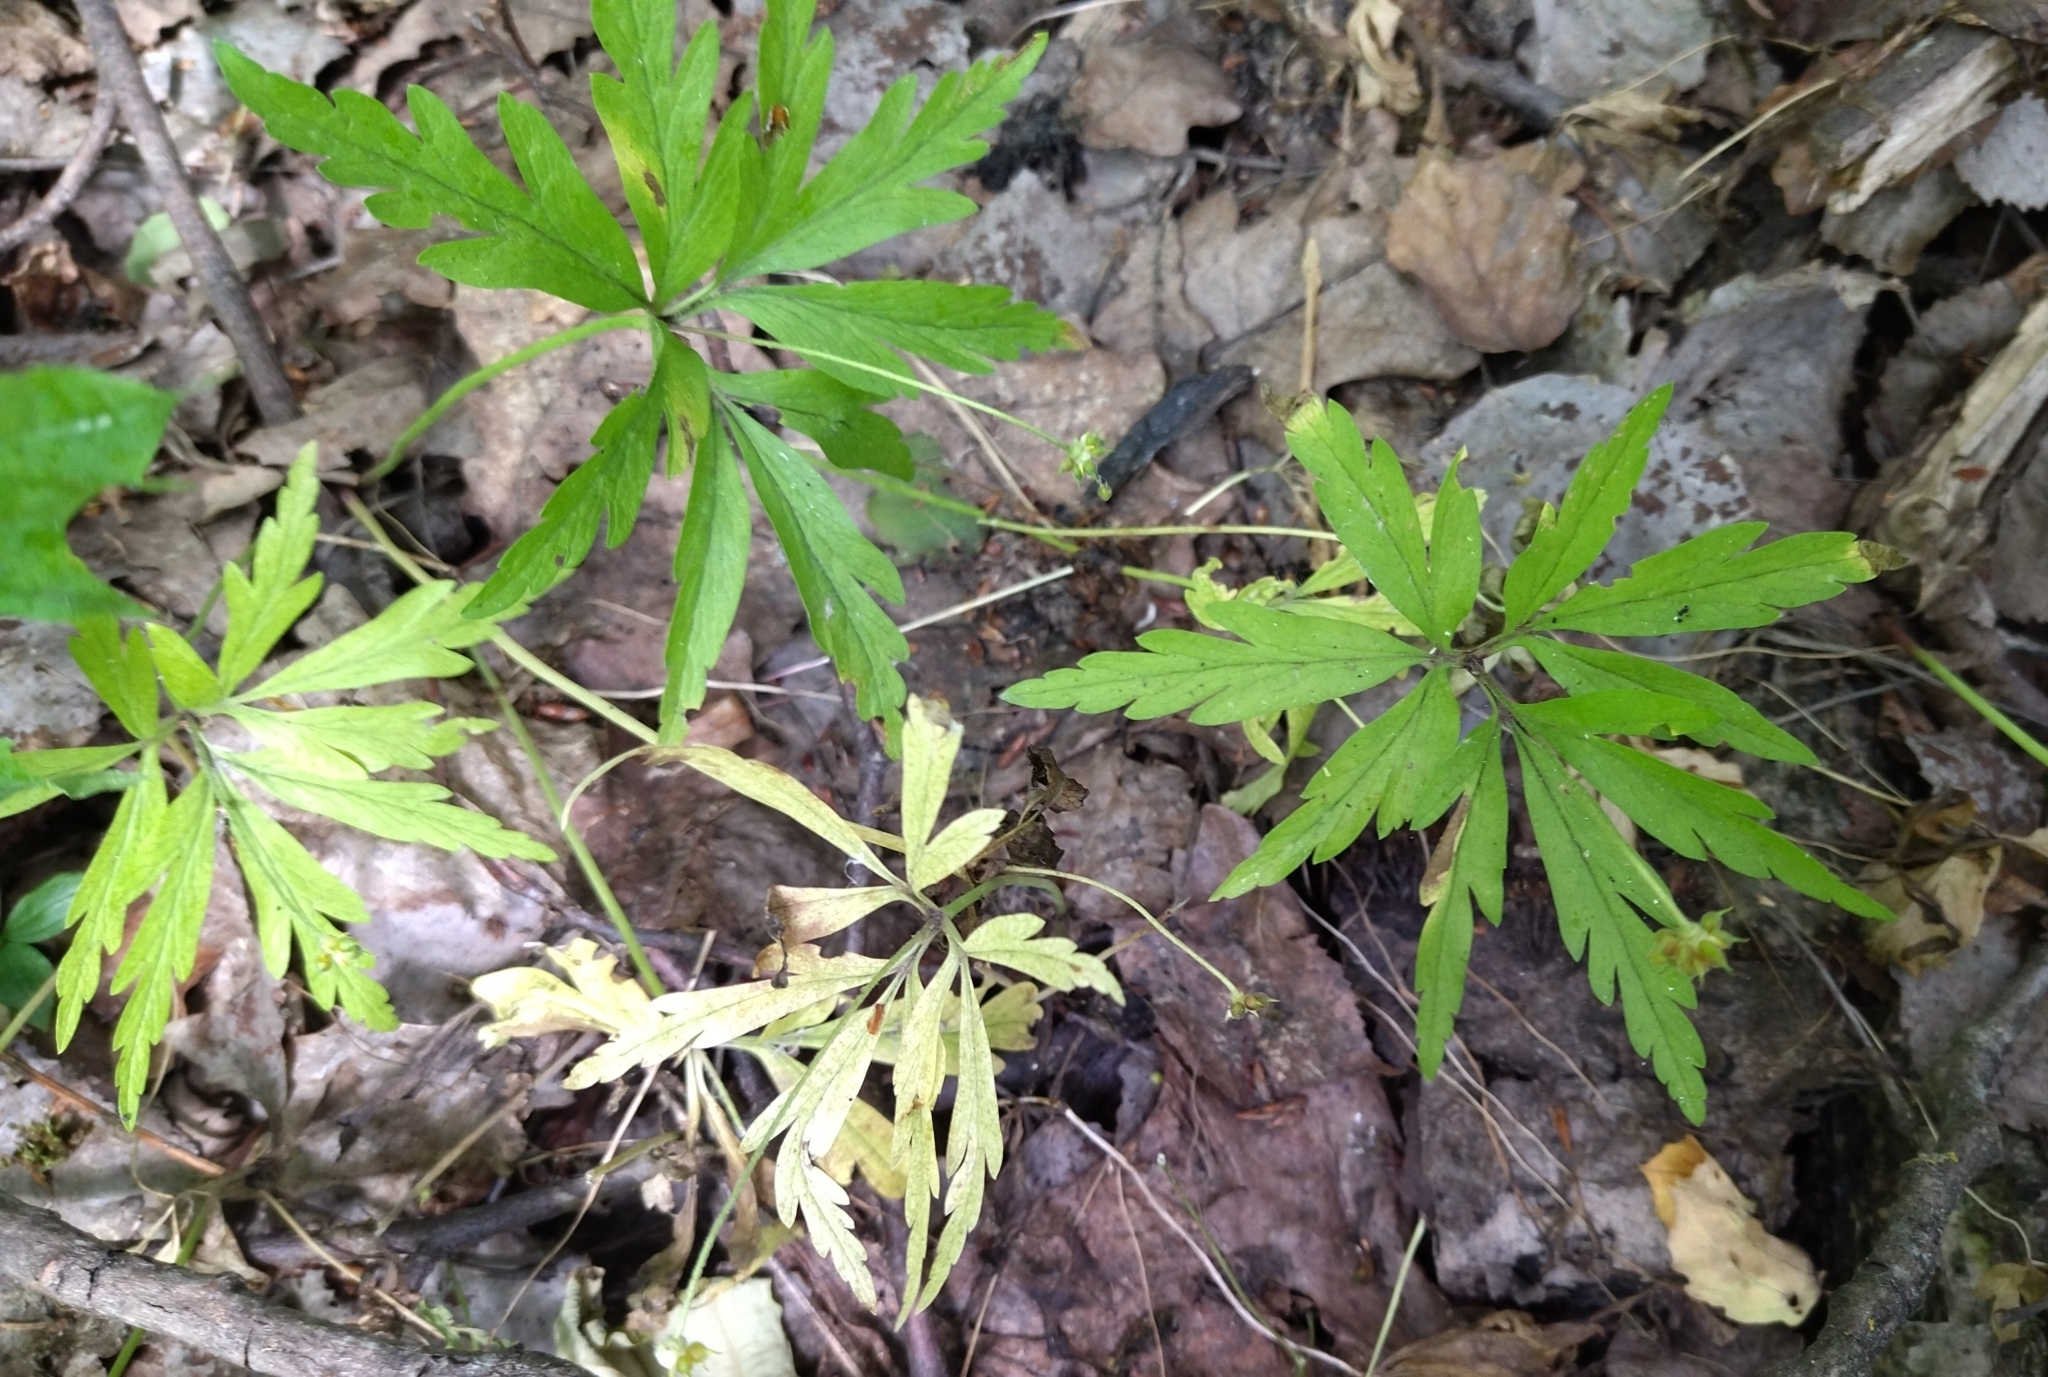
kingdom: Plantae
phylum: Tracheophyta
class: Magnoliopsida
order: Ranunculales
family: Ranunculaceae
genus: Anemone
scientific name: Anemone ranunculoides
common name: Yellow anemone
